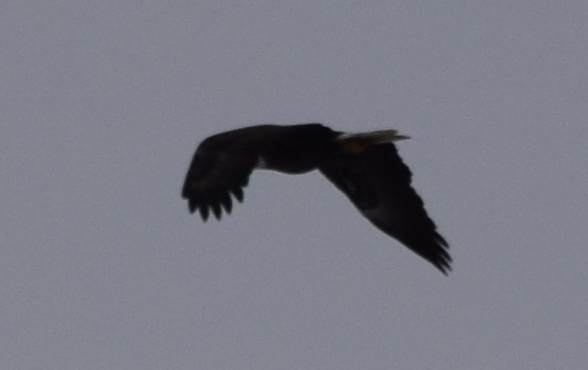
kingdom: Animalia
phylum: Chordata
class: Aves
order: Accipitriformes
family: Accipitridae
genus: Haliaeetus
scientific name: Haliaeetus leucocephalus
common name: Bald eagle
